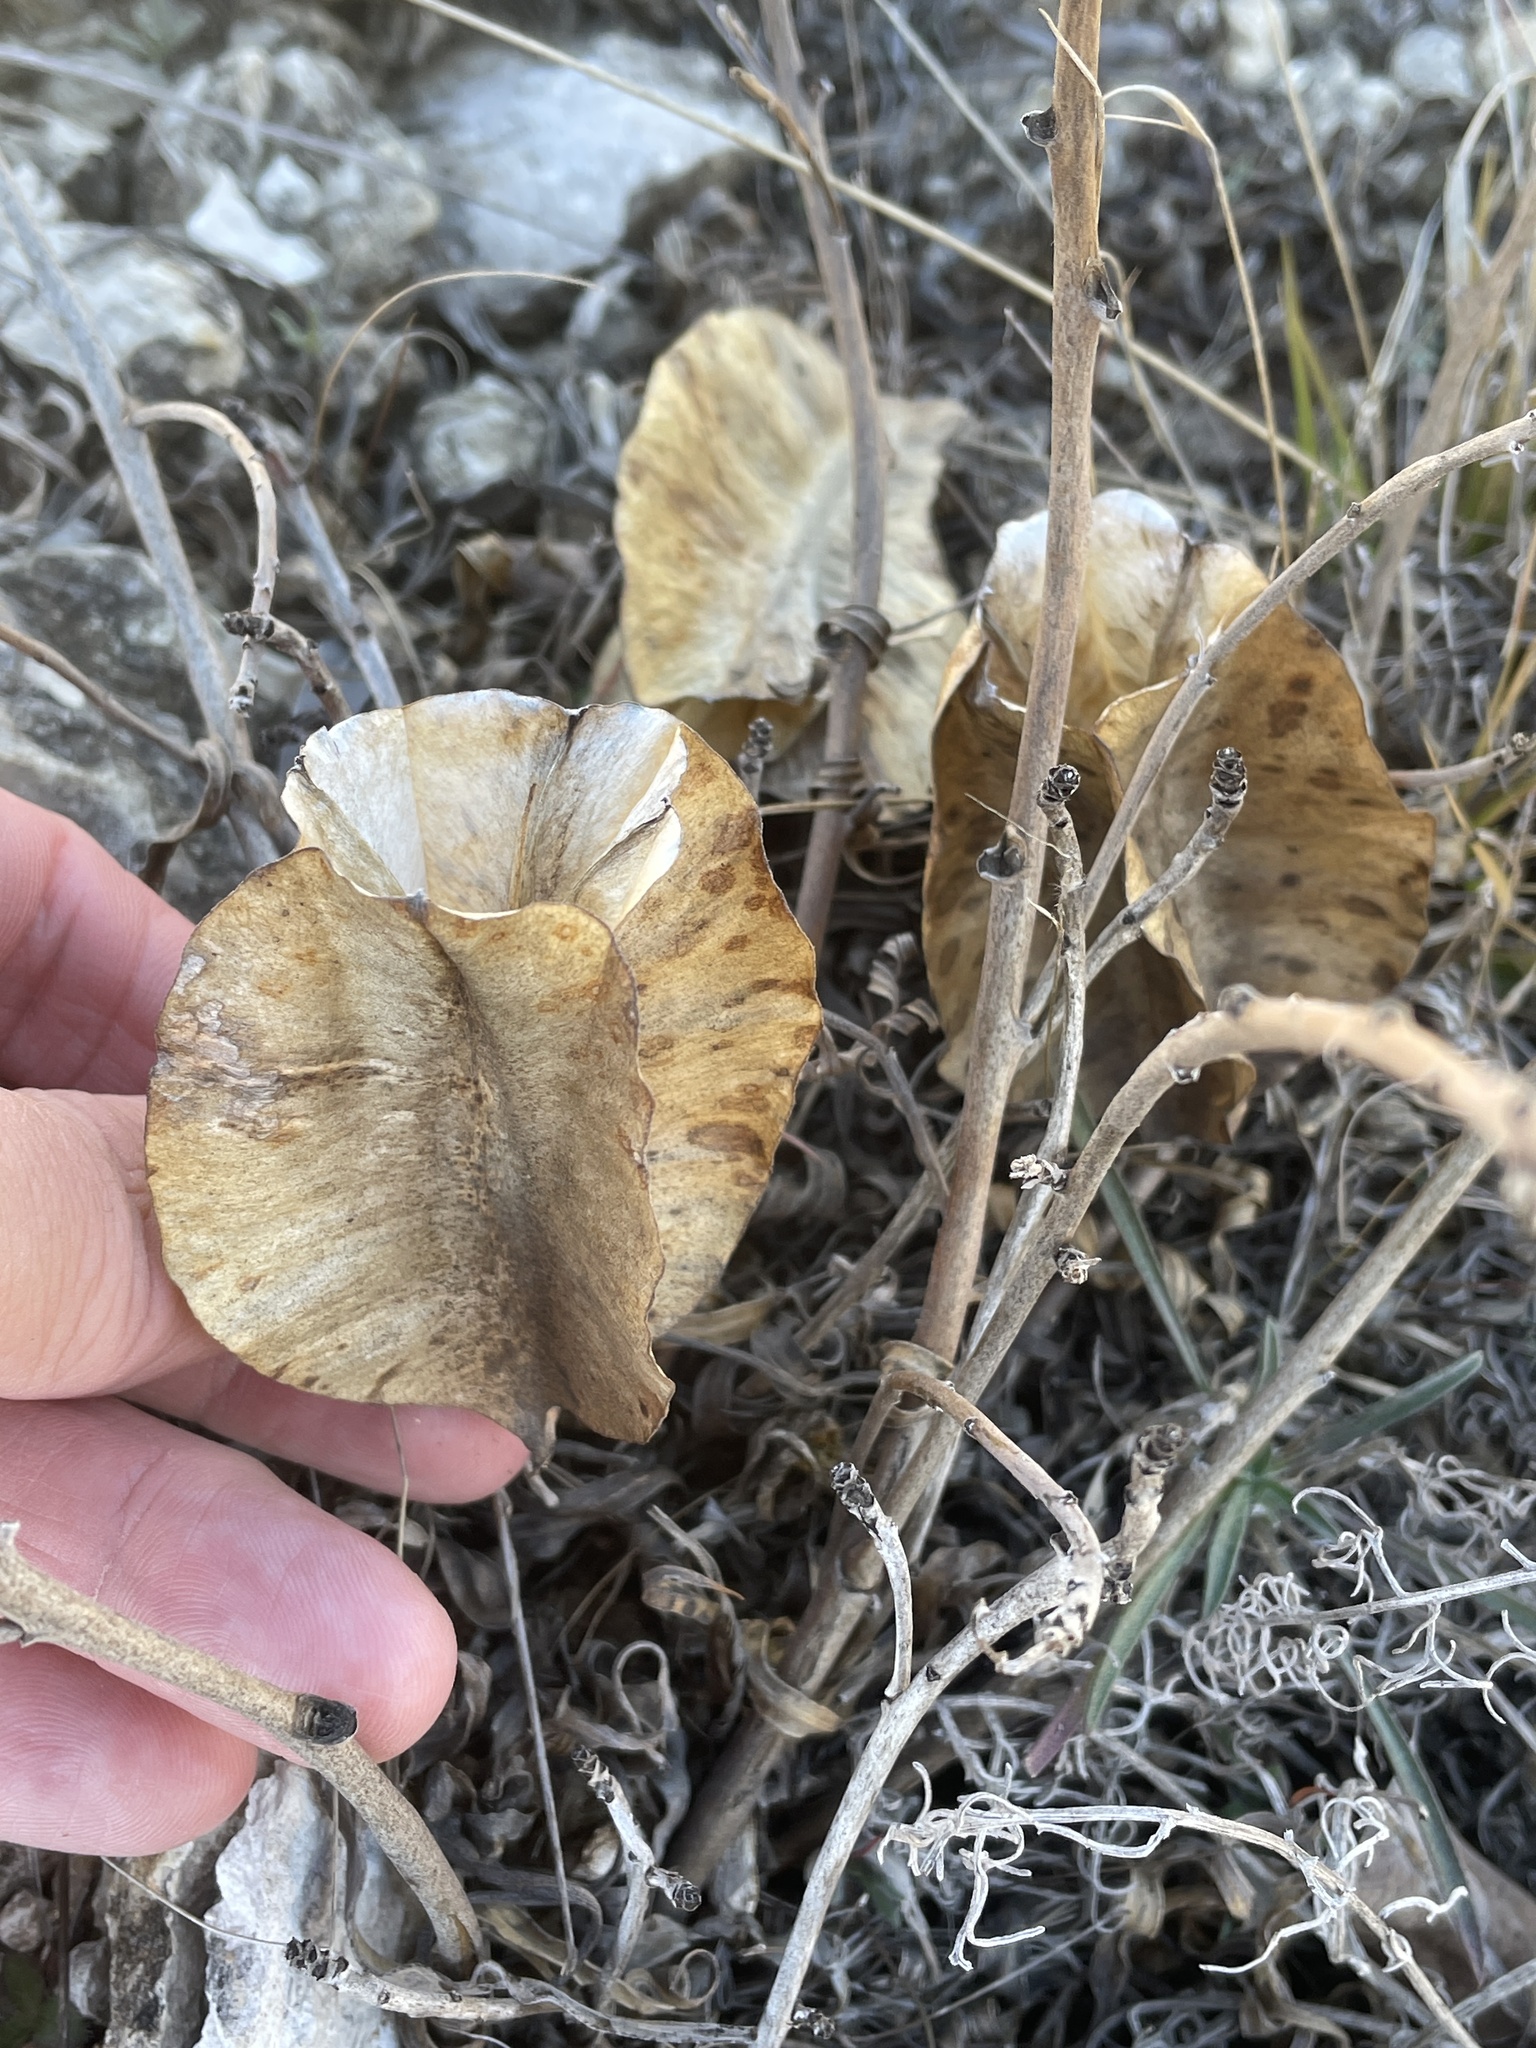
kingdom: Plantae
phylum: Tracheophyta
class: Magnoliopsida
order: Myrtales
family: Onagraceae
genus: Oenothera
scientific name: Oenothera macrocarpa
